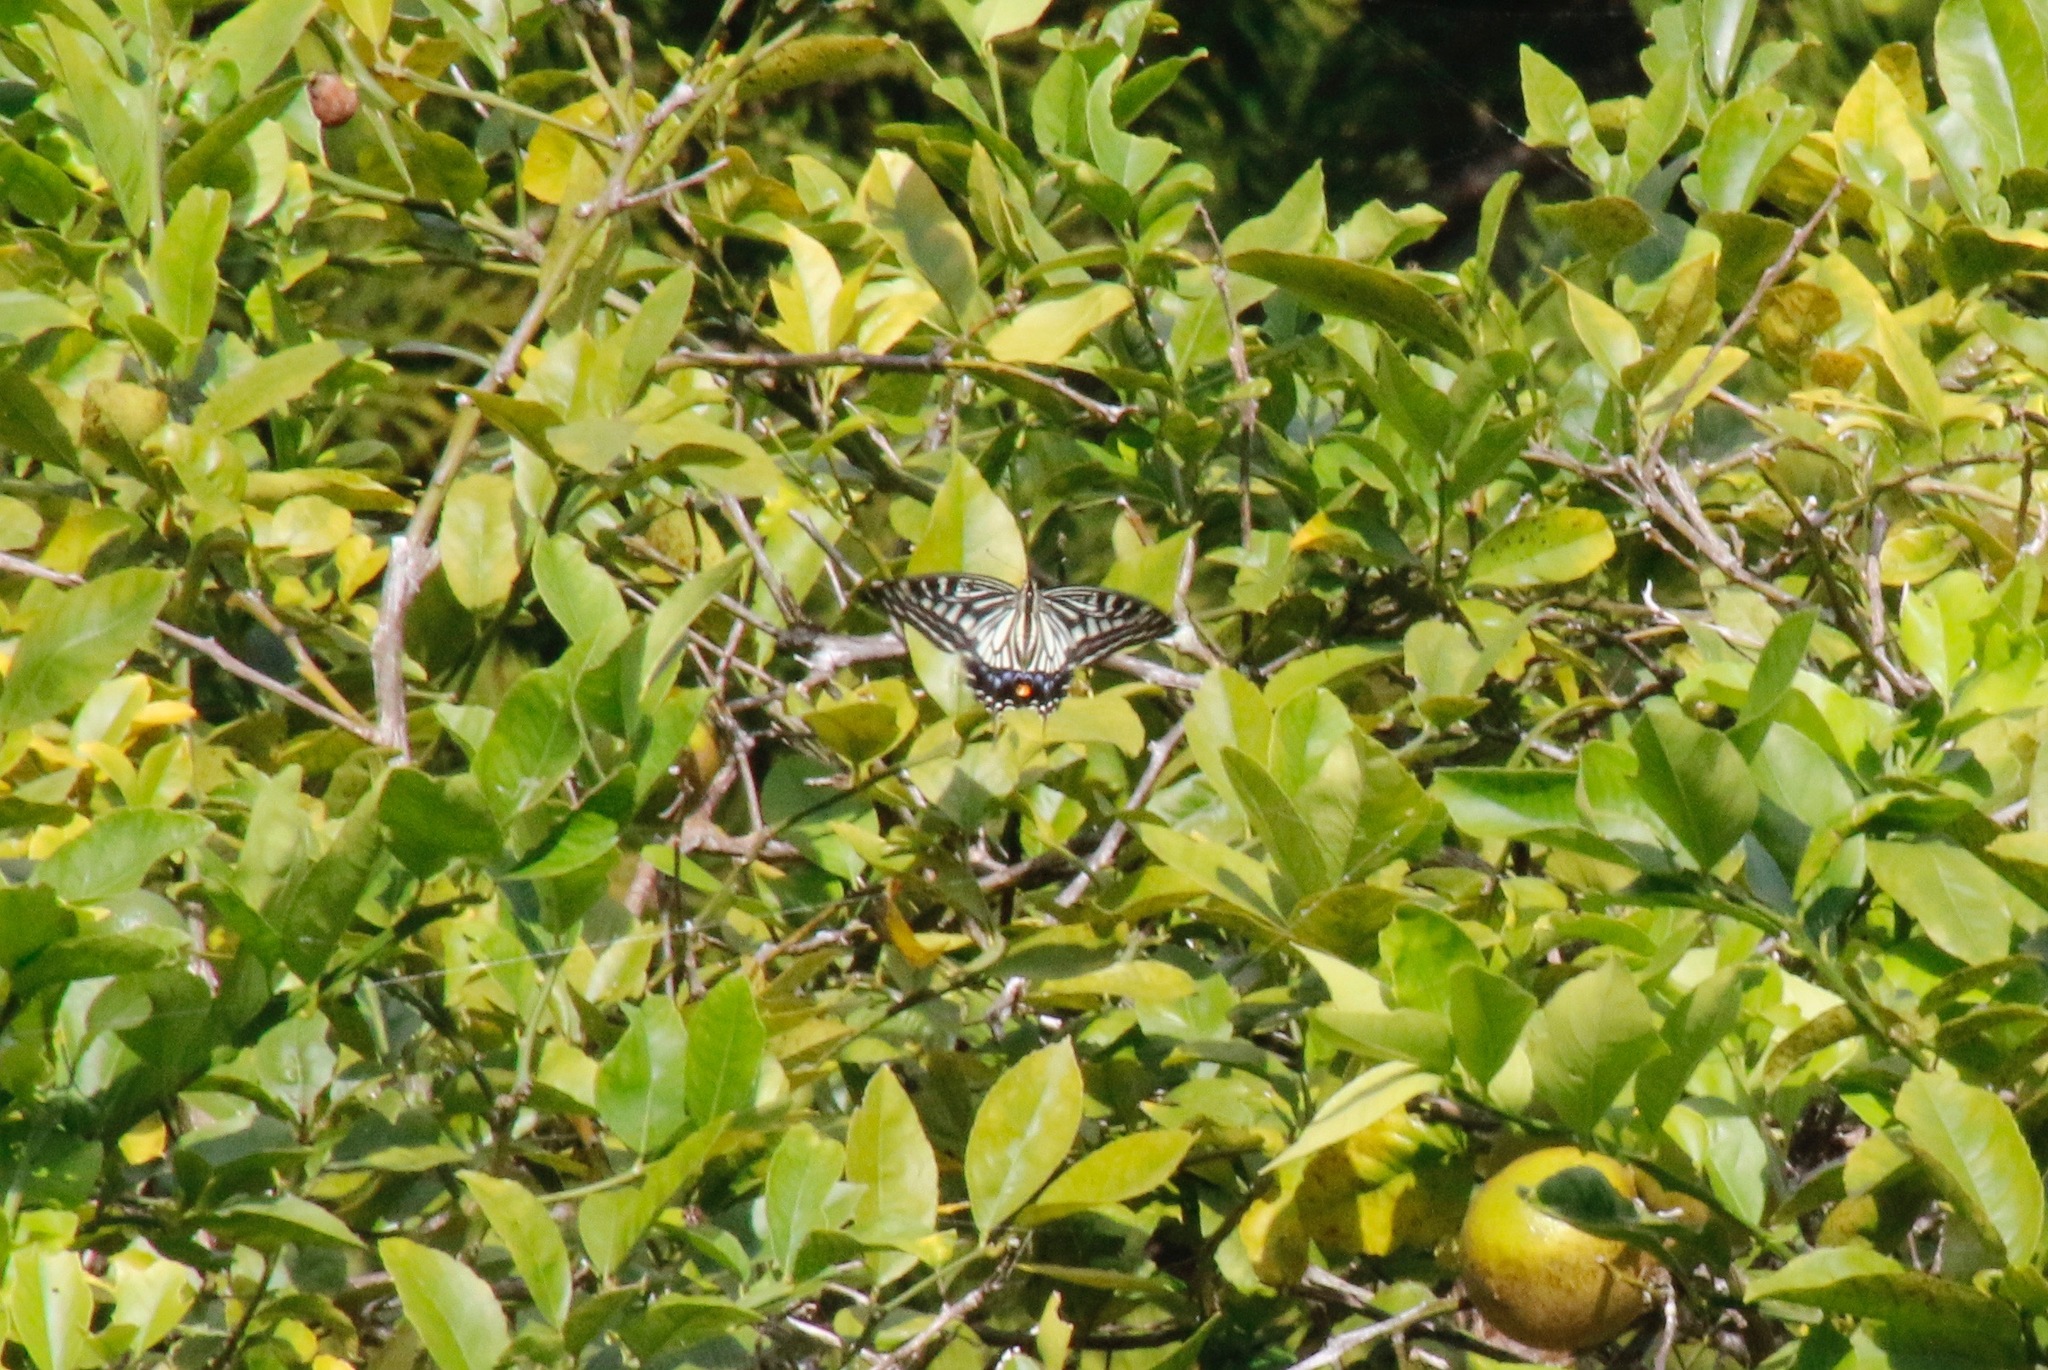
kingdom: Animalia
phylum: Arthropoda
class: Insecta
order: Lepidoptera
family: Papilionidae
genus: Papilio
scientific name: Papilio xuthus
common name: Asian swallowtail
